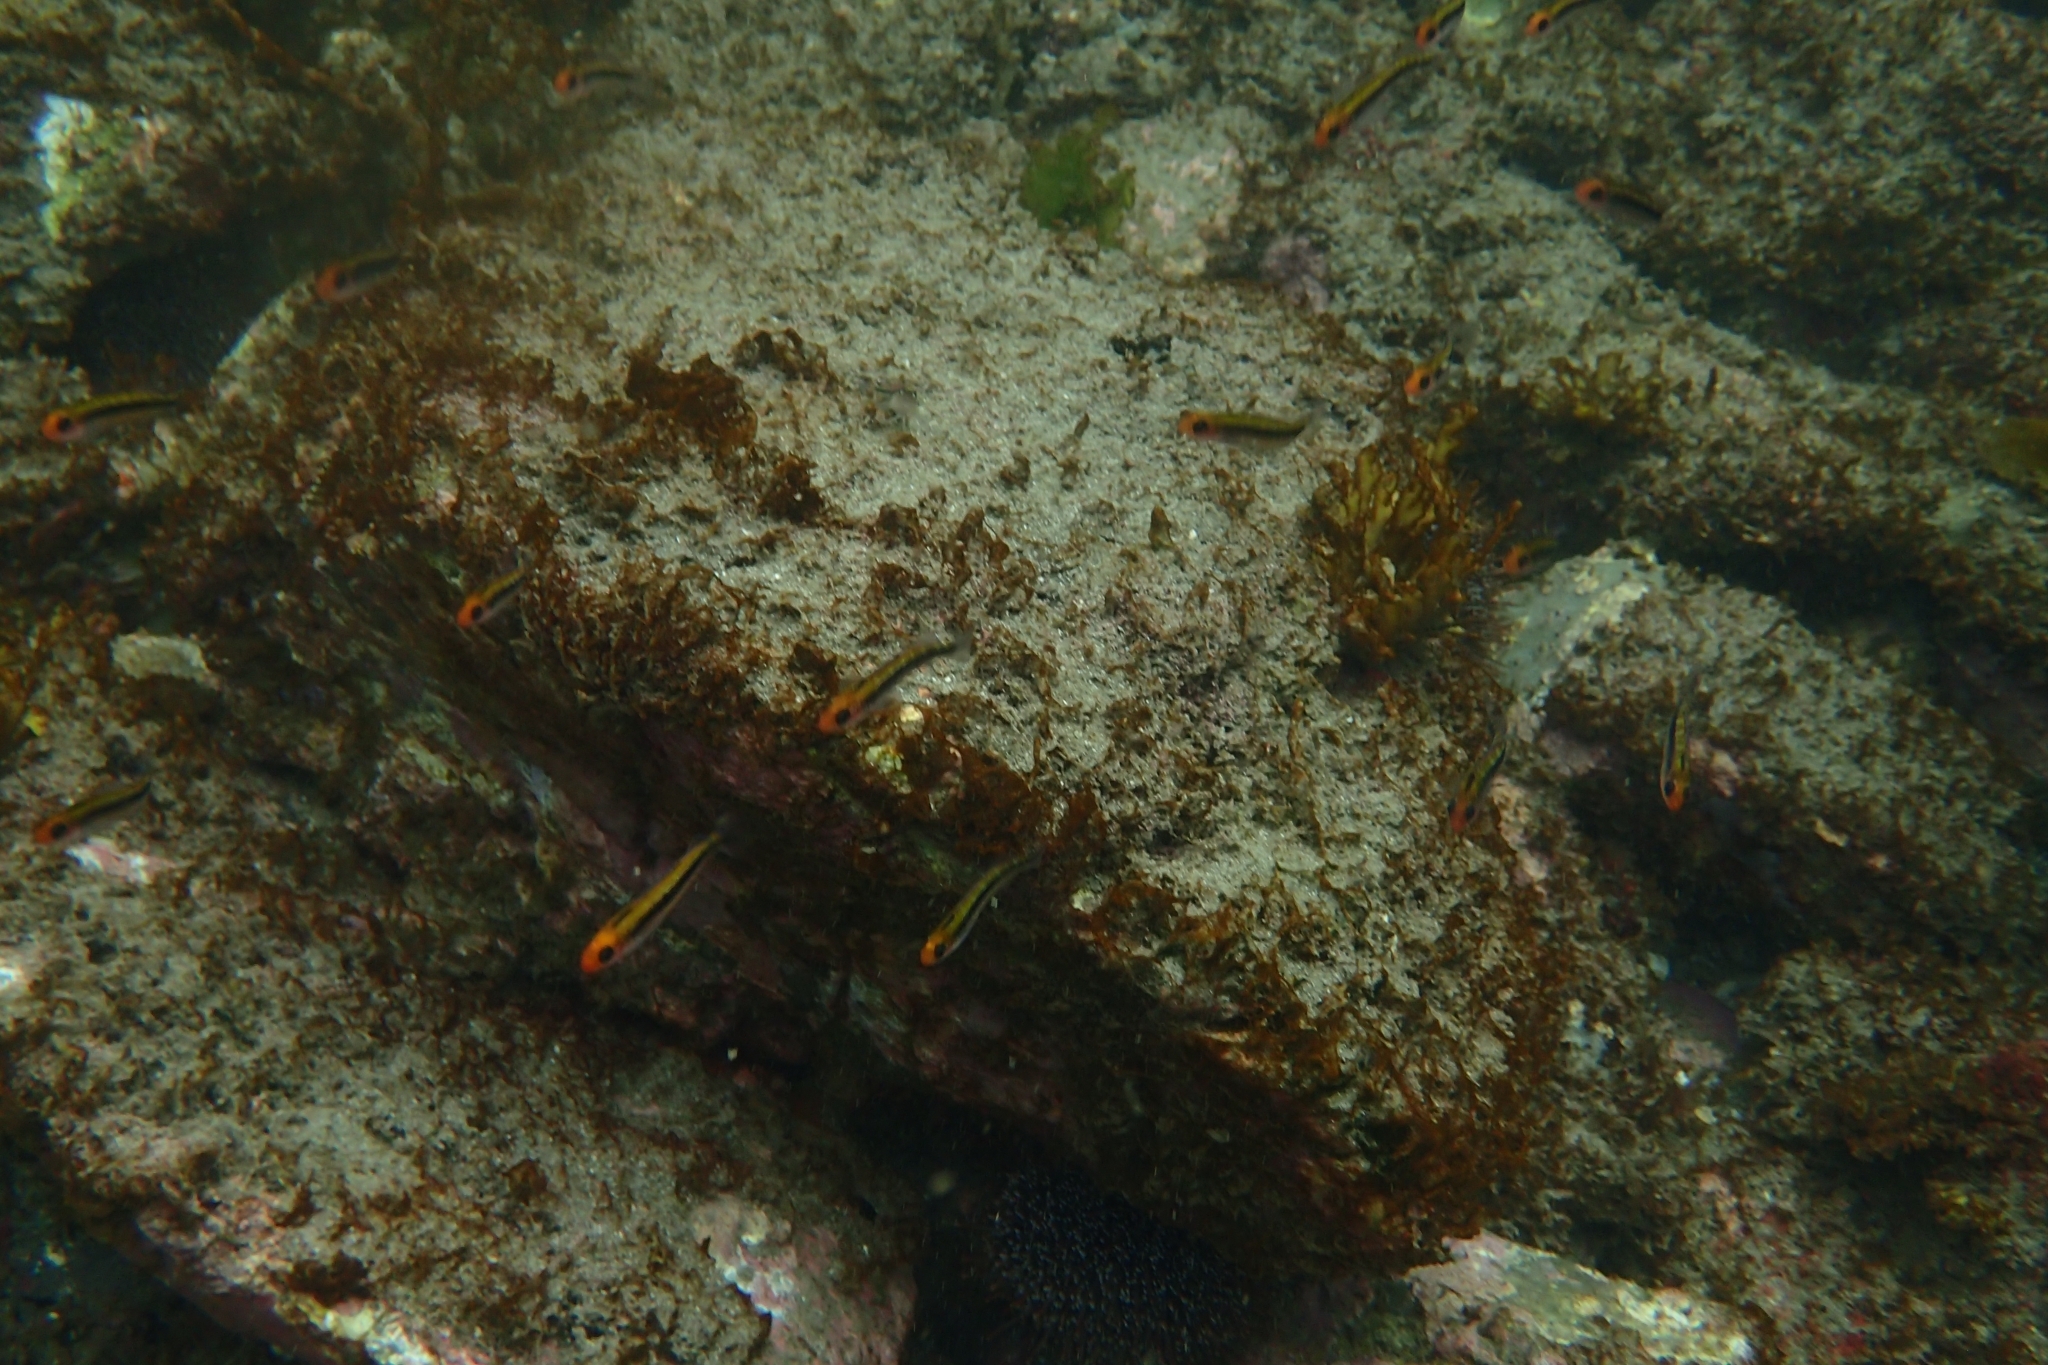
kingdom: Animalia
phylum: Chordata
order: Perciformes
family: Tripterygiidae
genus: Forsterygion
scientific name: Forsterygion maryannae
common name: Oblique-swimming triplefin
